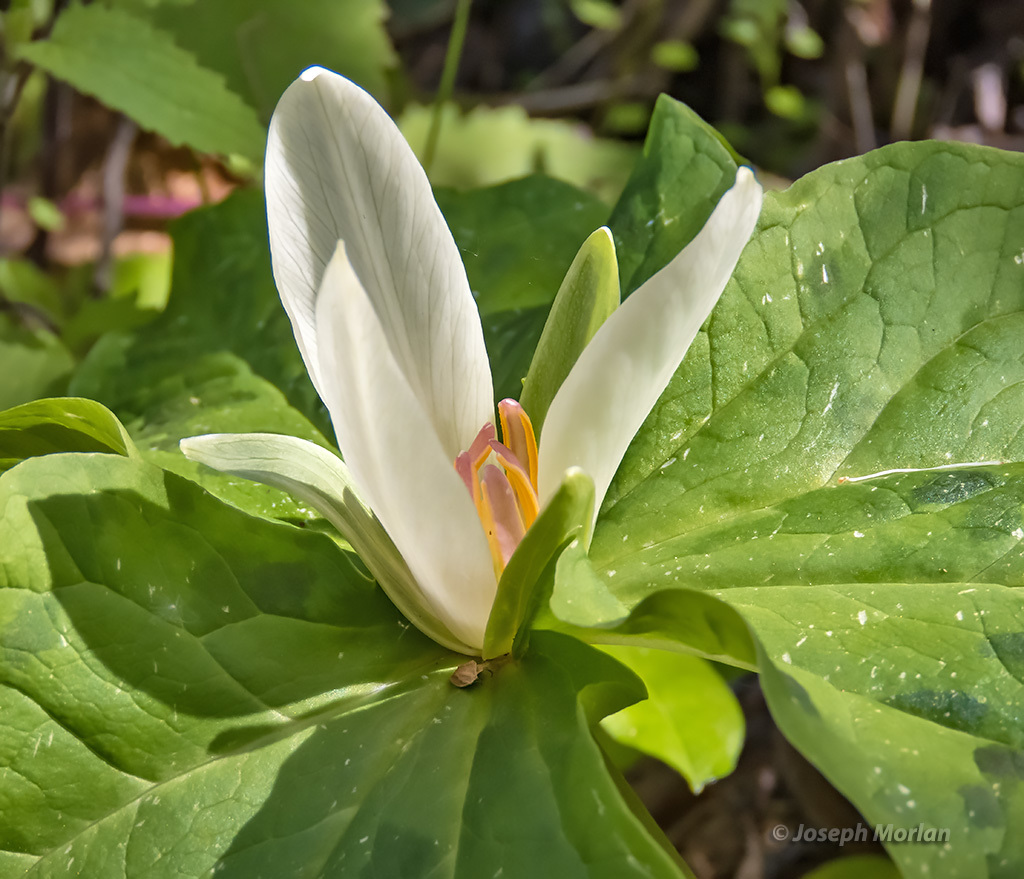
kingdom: Plantae
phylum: Tracheophyta
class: Liliopsida
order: Liliales
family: Melanthiaceae
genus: Trillium
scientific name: Trillium chloropetalum
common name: Giant trillium
